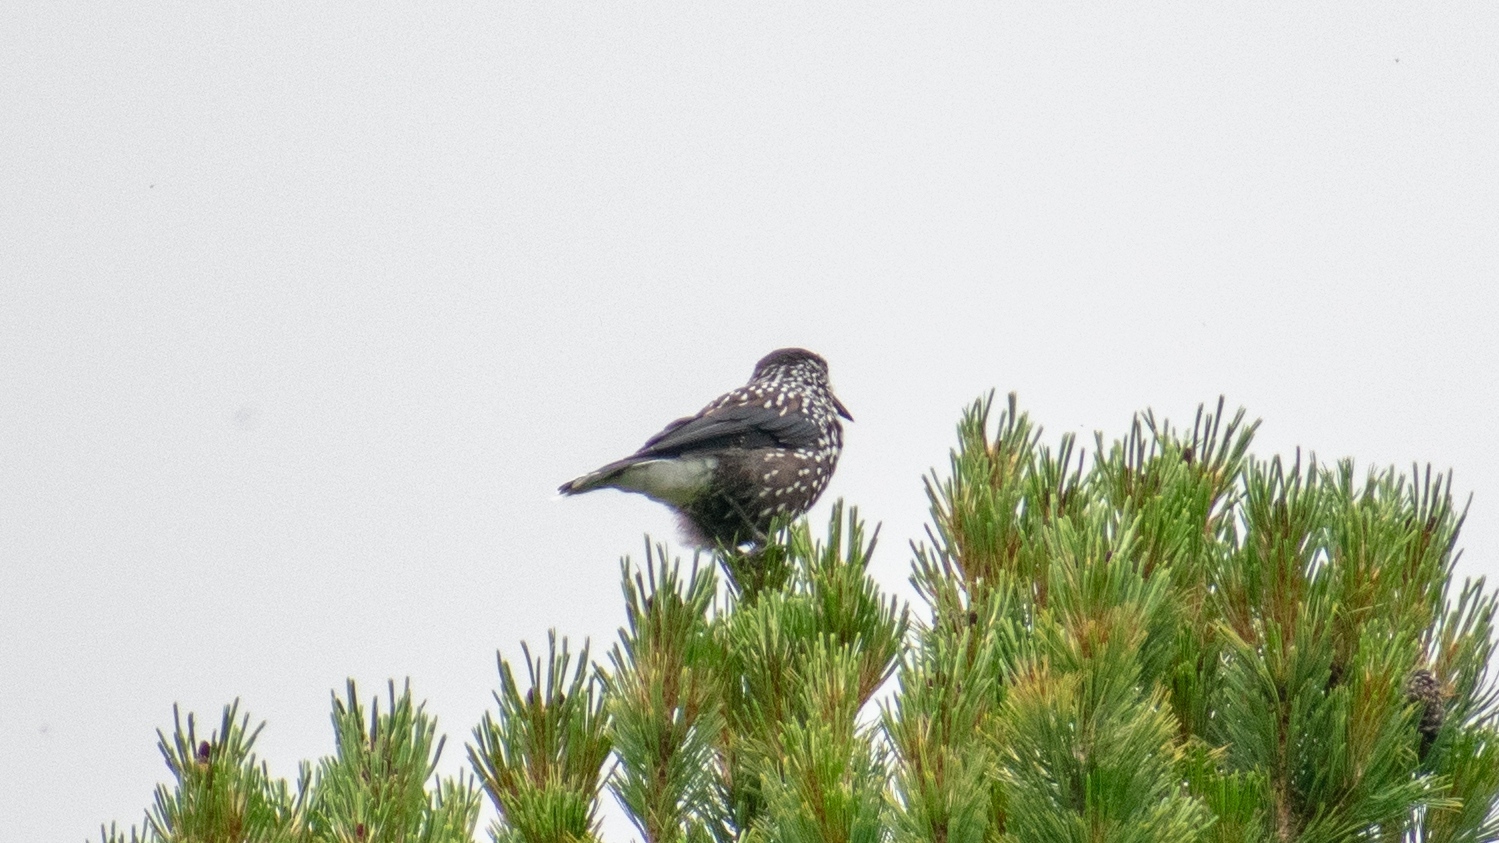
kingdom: Animalia
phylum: Chordata
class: Aves
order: Passeriformes
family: Corvidae
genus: Nucifraga
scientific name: Nucifraga caryocatactes
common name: Spotted nutcracker
